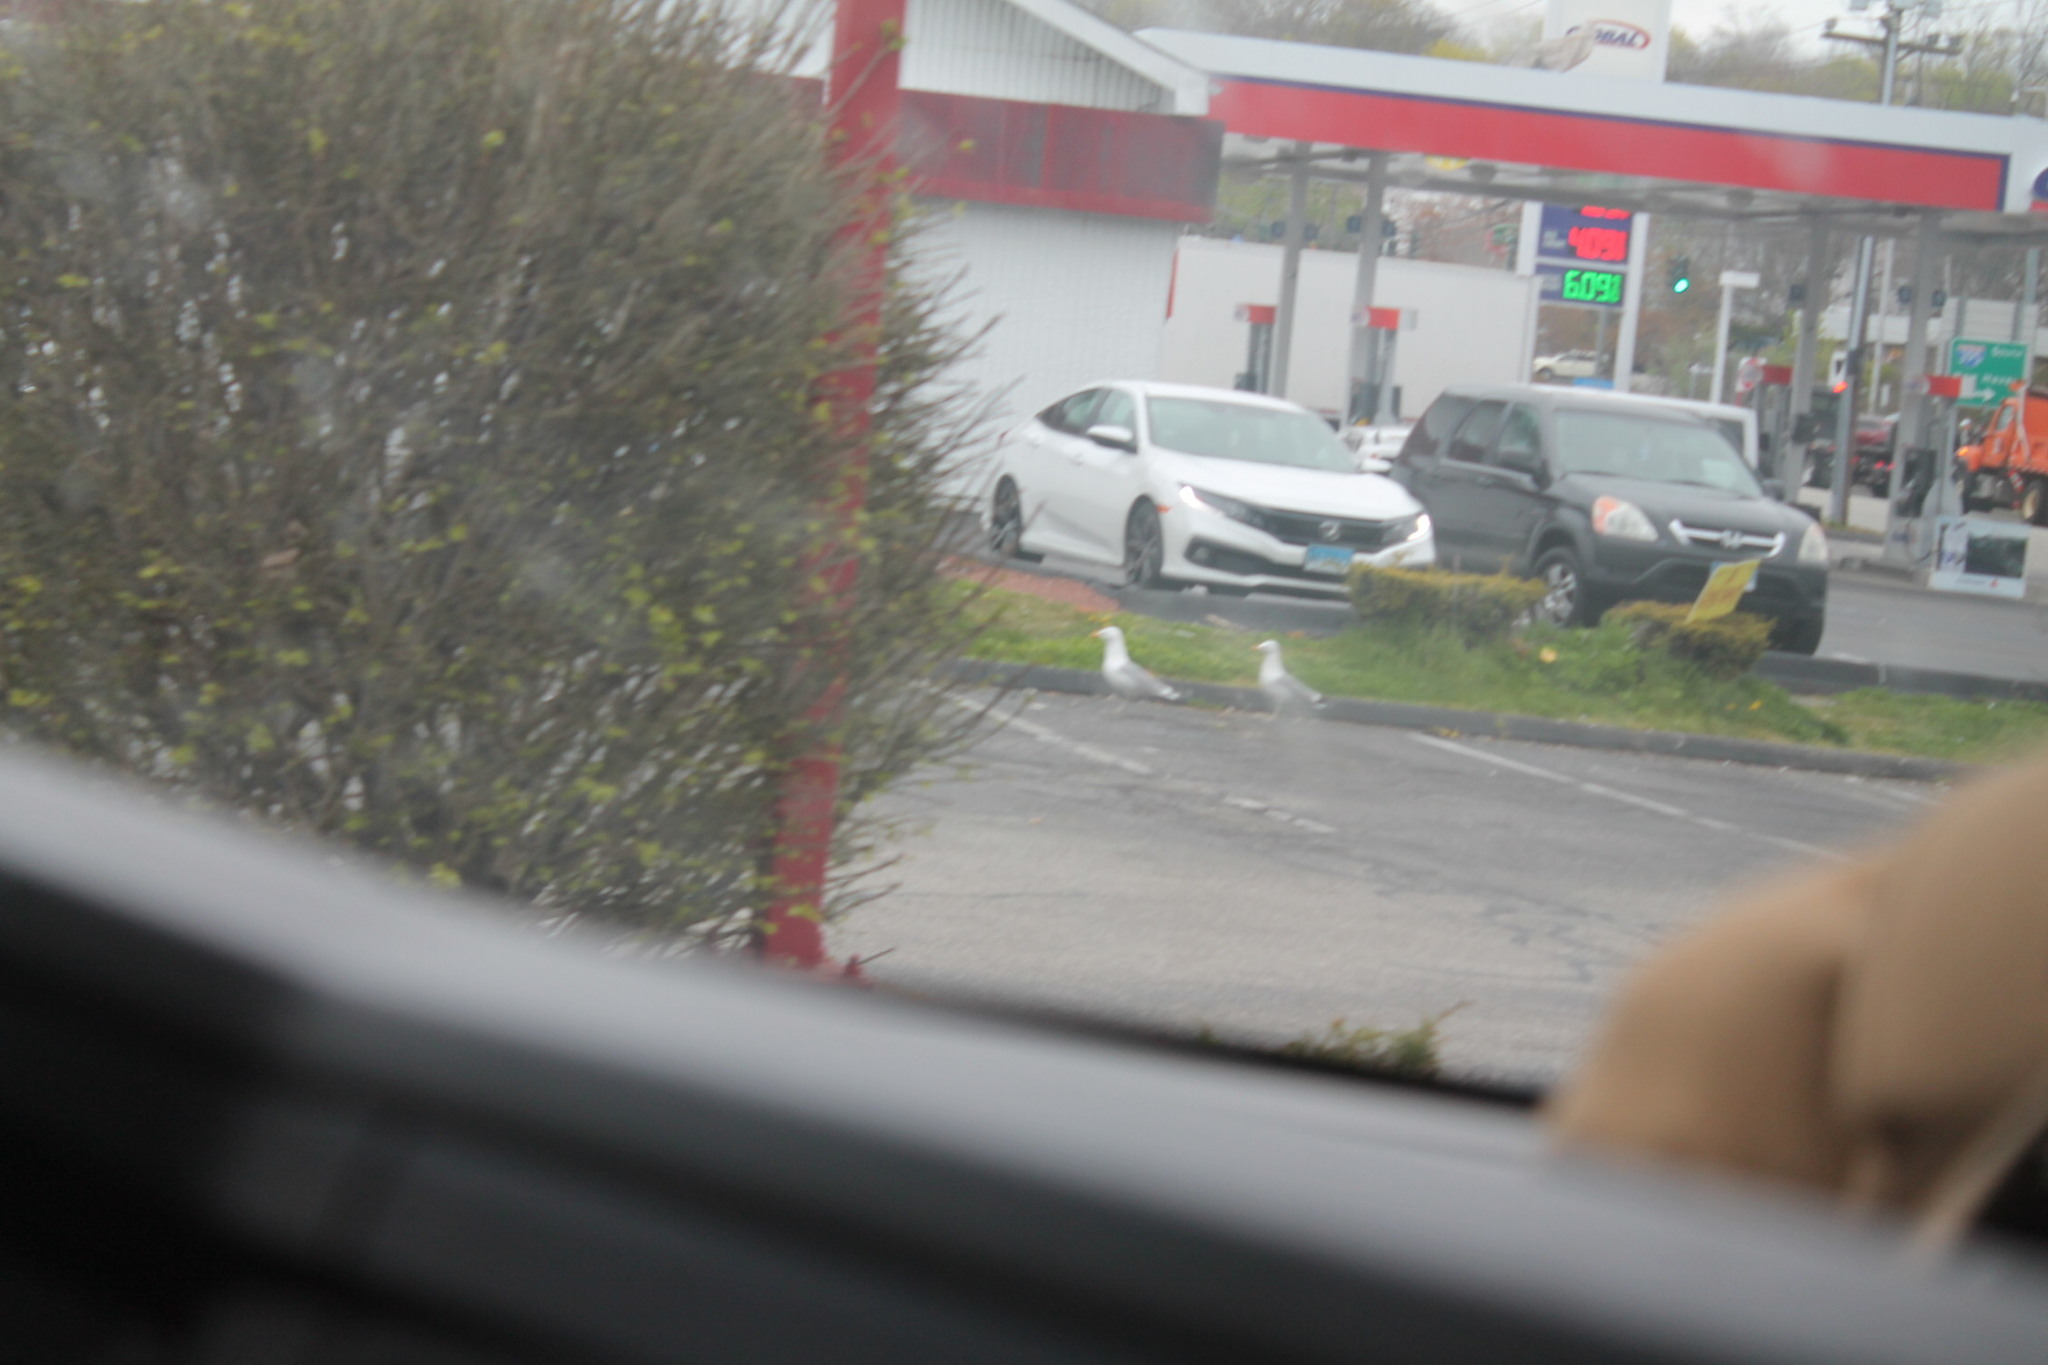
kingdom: Animalia
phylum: Chordata
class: Aves
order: Charadriiformes
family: Laridae
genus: Larus
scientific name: Larus argentatus
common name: Herring gull
